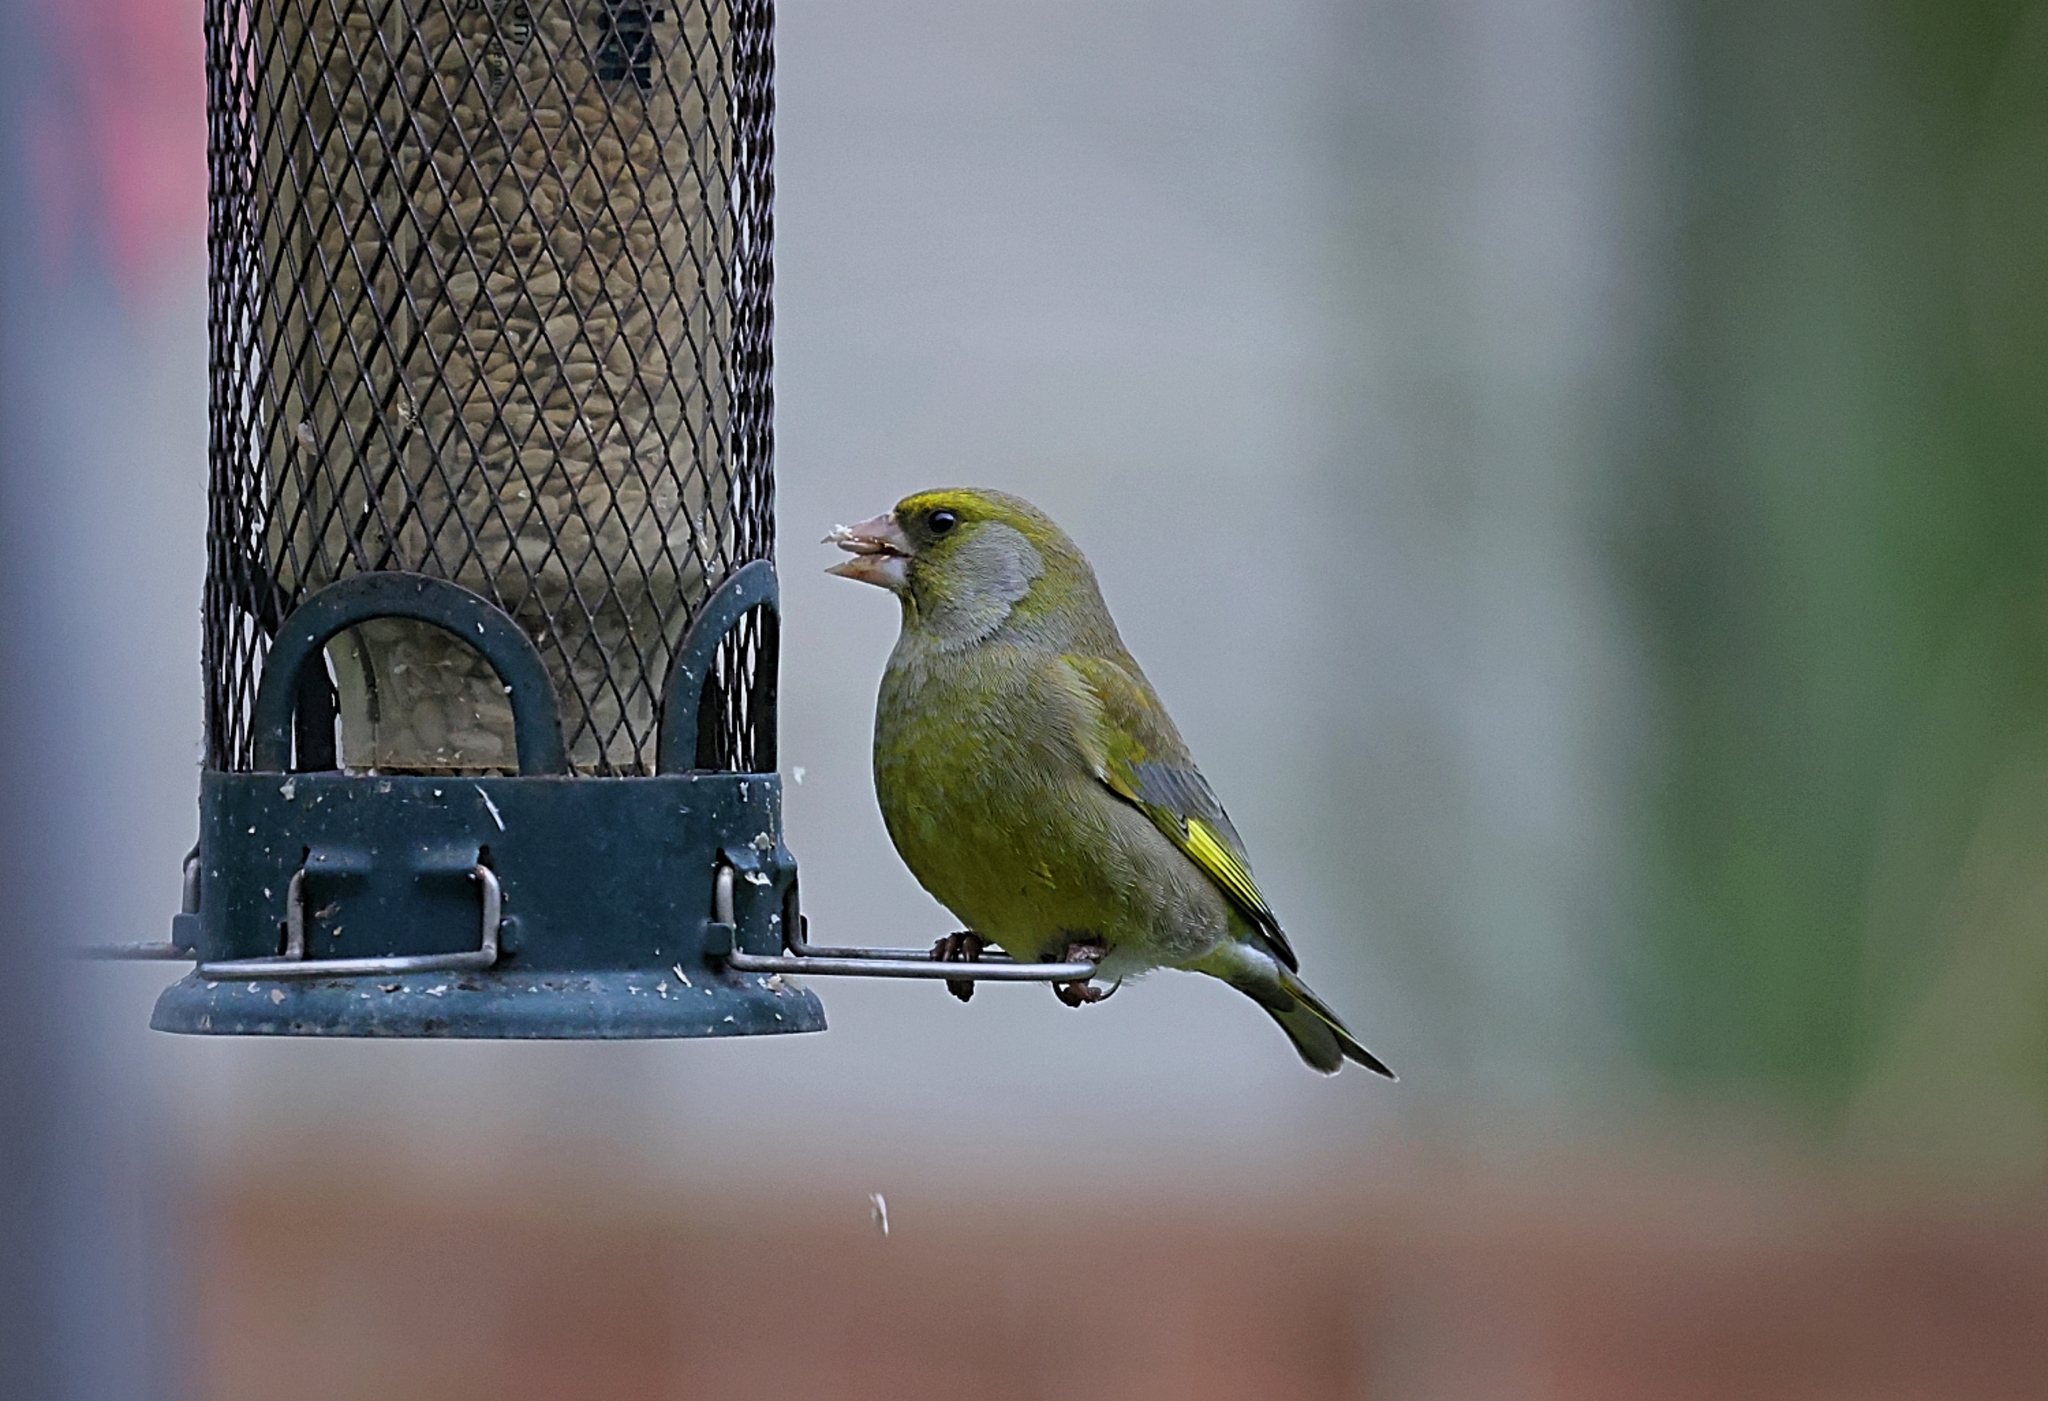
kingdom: Plantae
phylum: Tracheophyta
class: Liliopsida
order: Poales
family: Poaceae
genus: Chloris
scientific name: Chloris chloris
